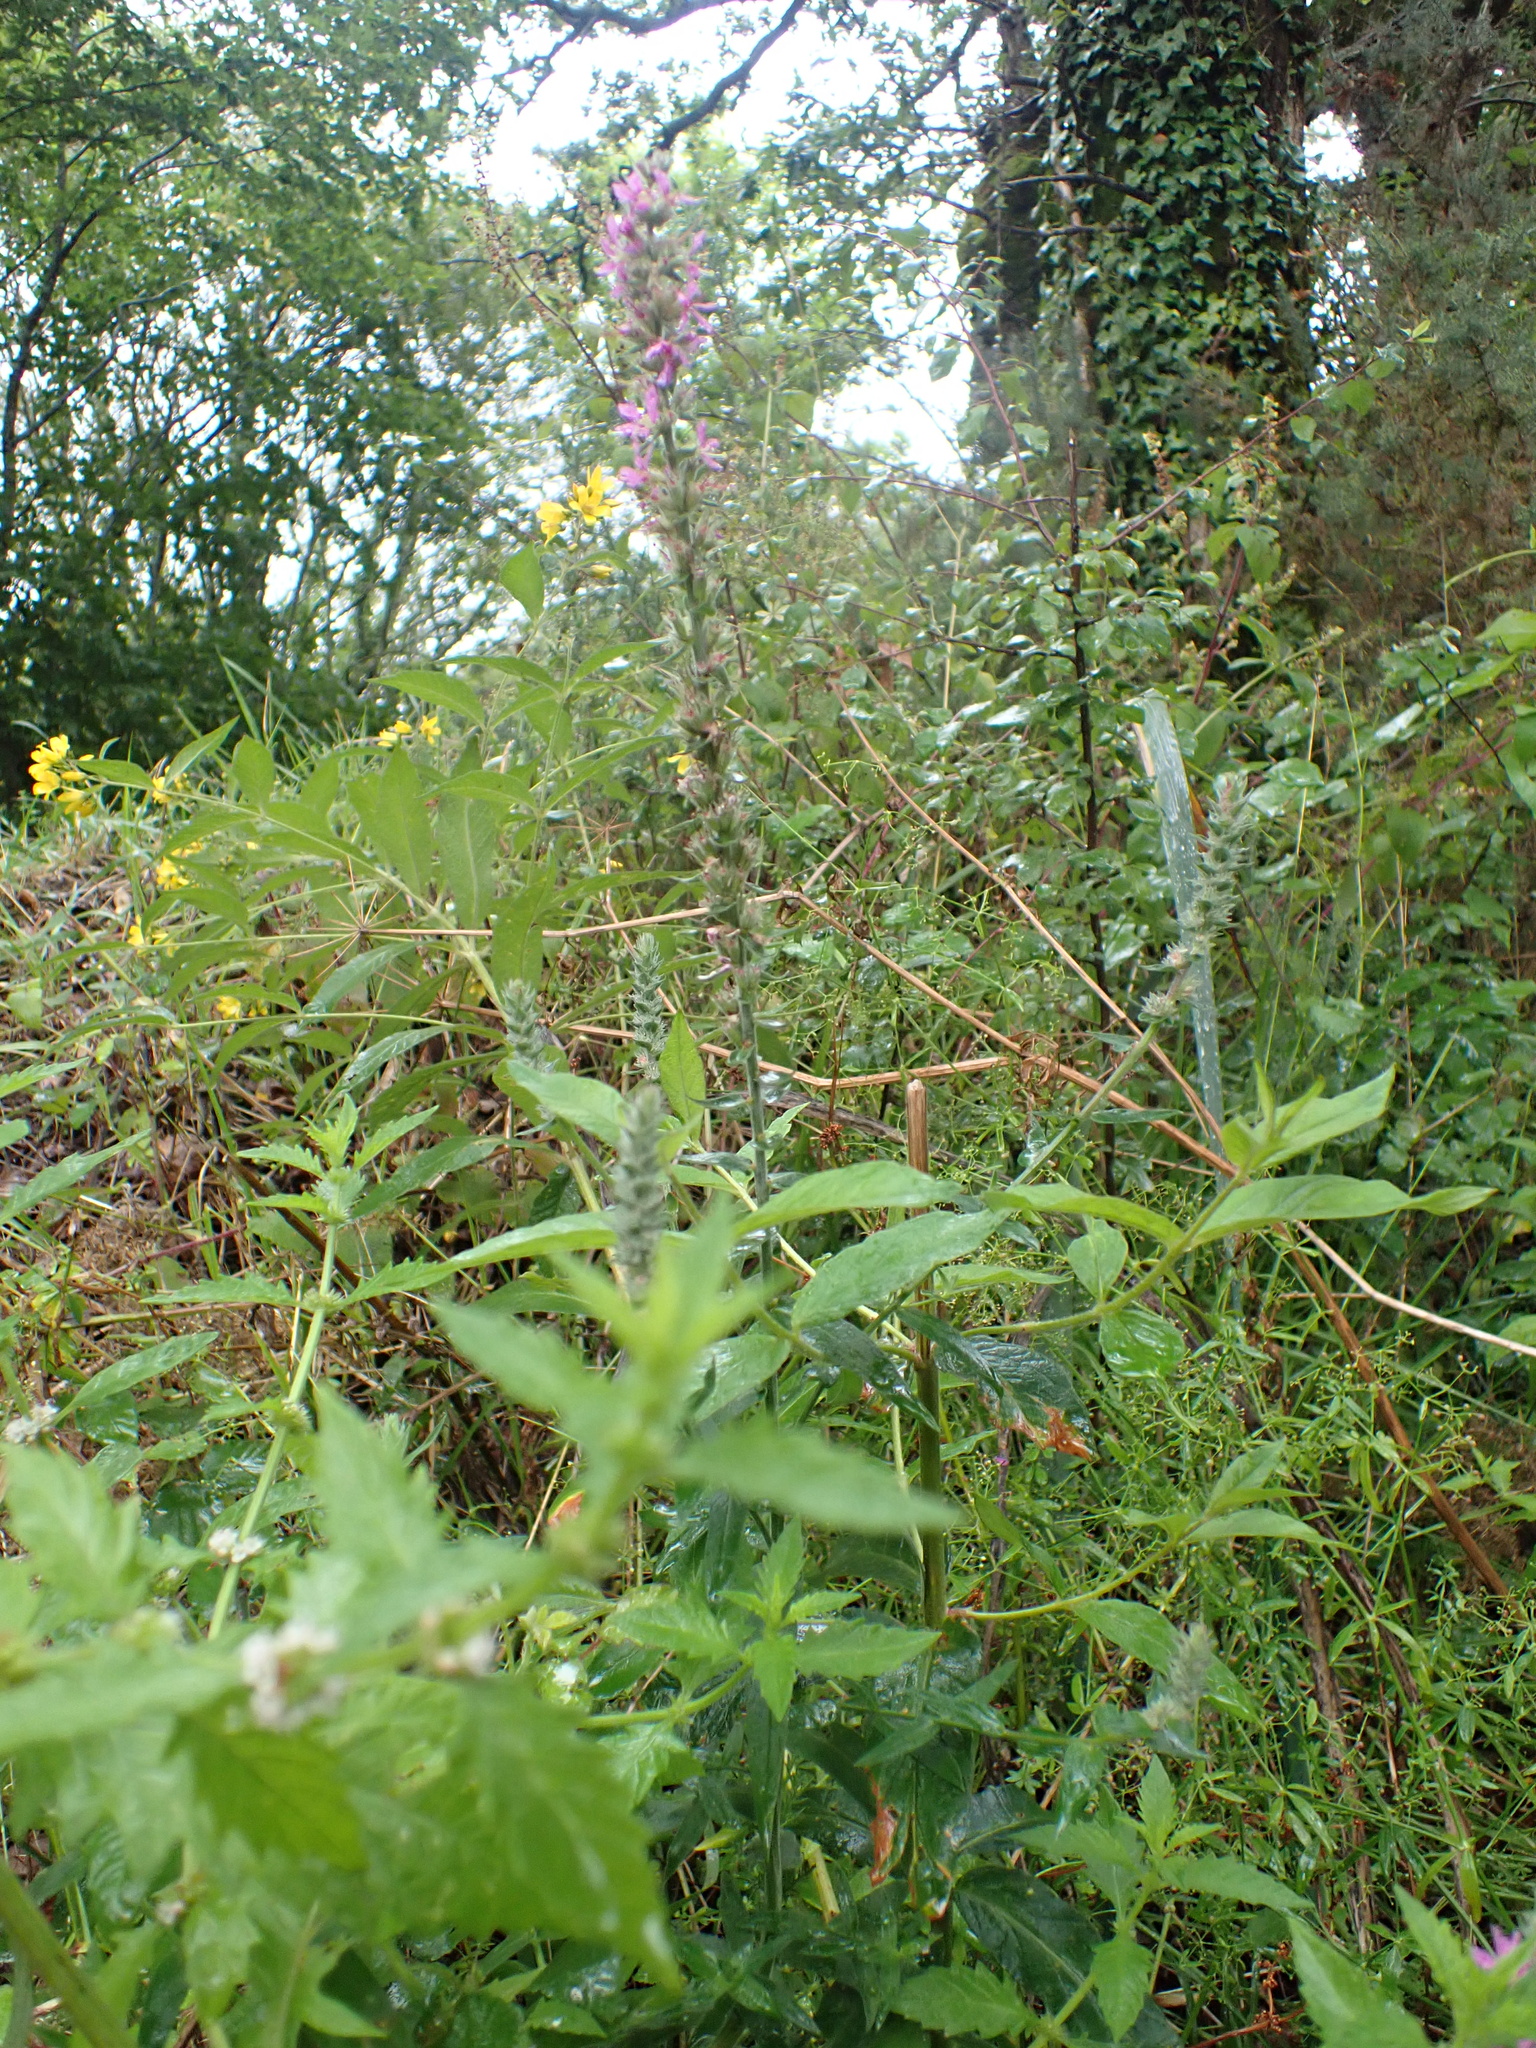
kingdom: Plantae
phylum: Tracheophyta
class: Magnoliopsida
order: Myrtales
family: Lythraceae
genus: Lythrum
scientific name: Lythrum salicaria
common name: Purple loosestrife
